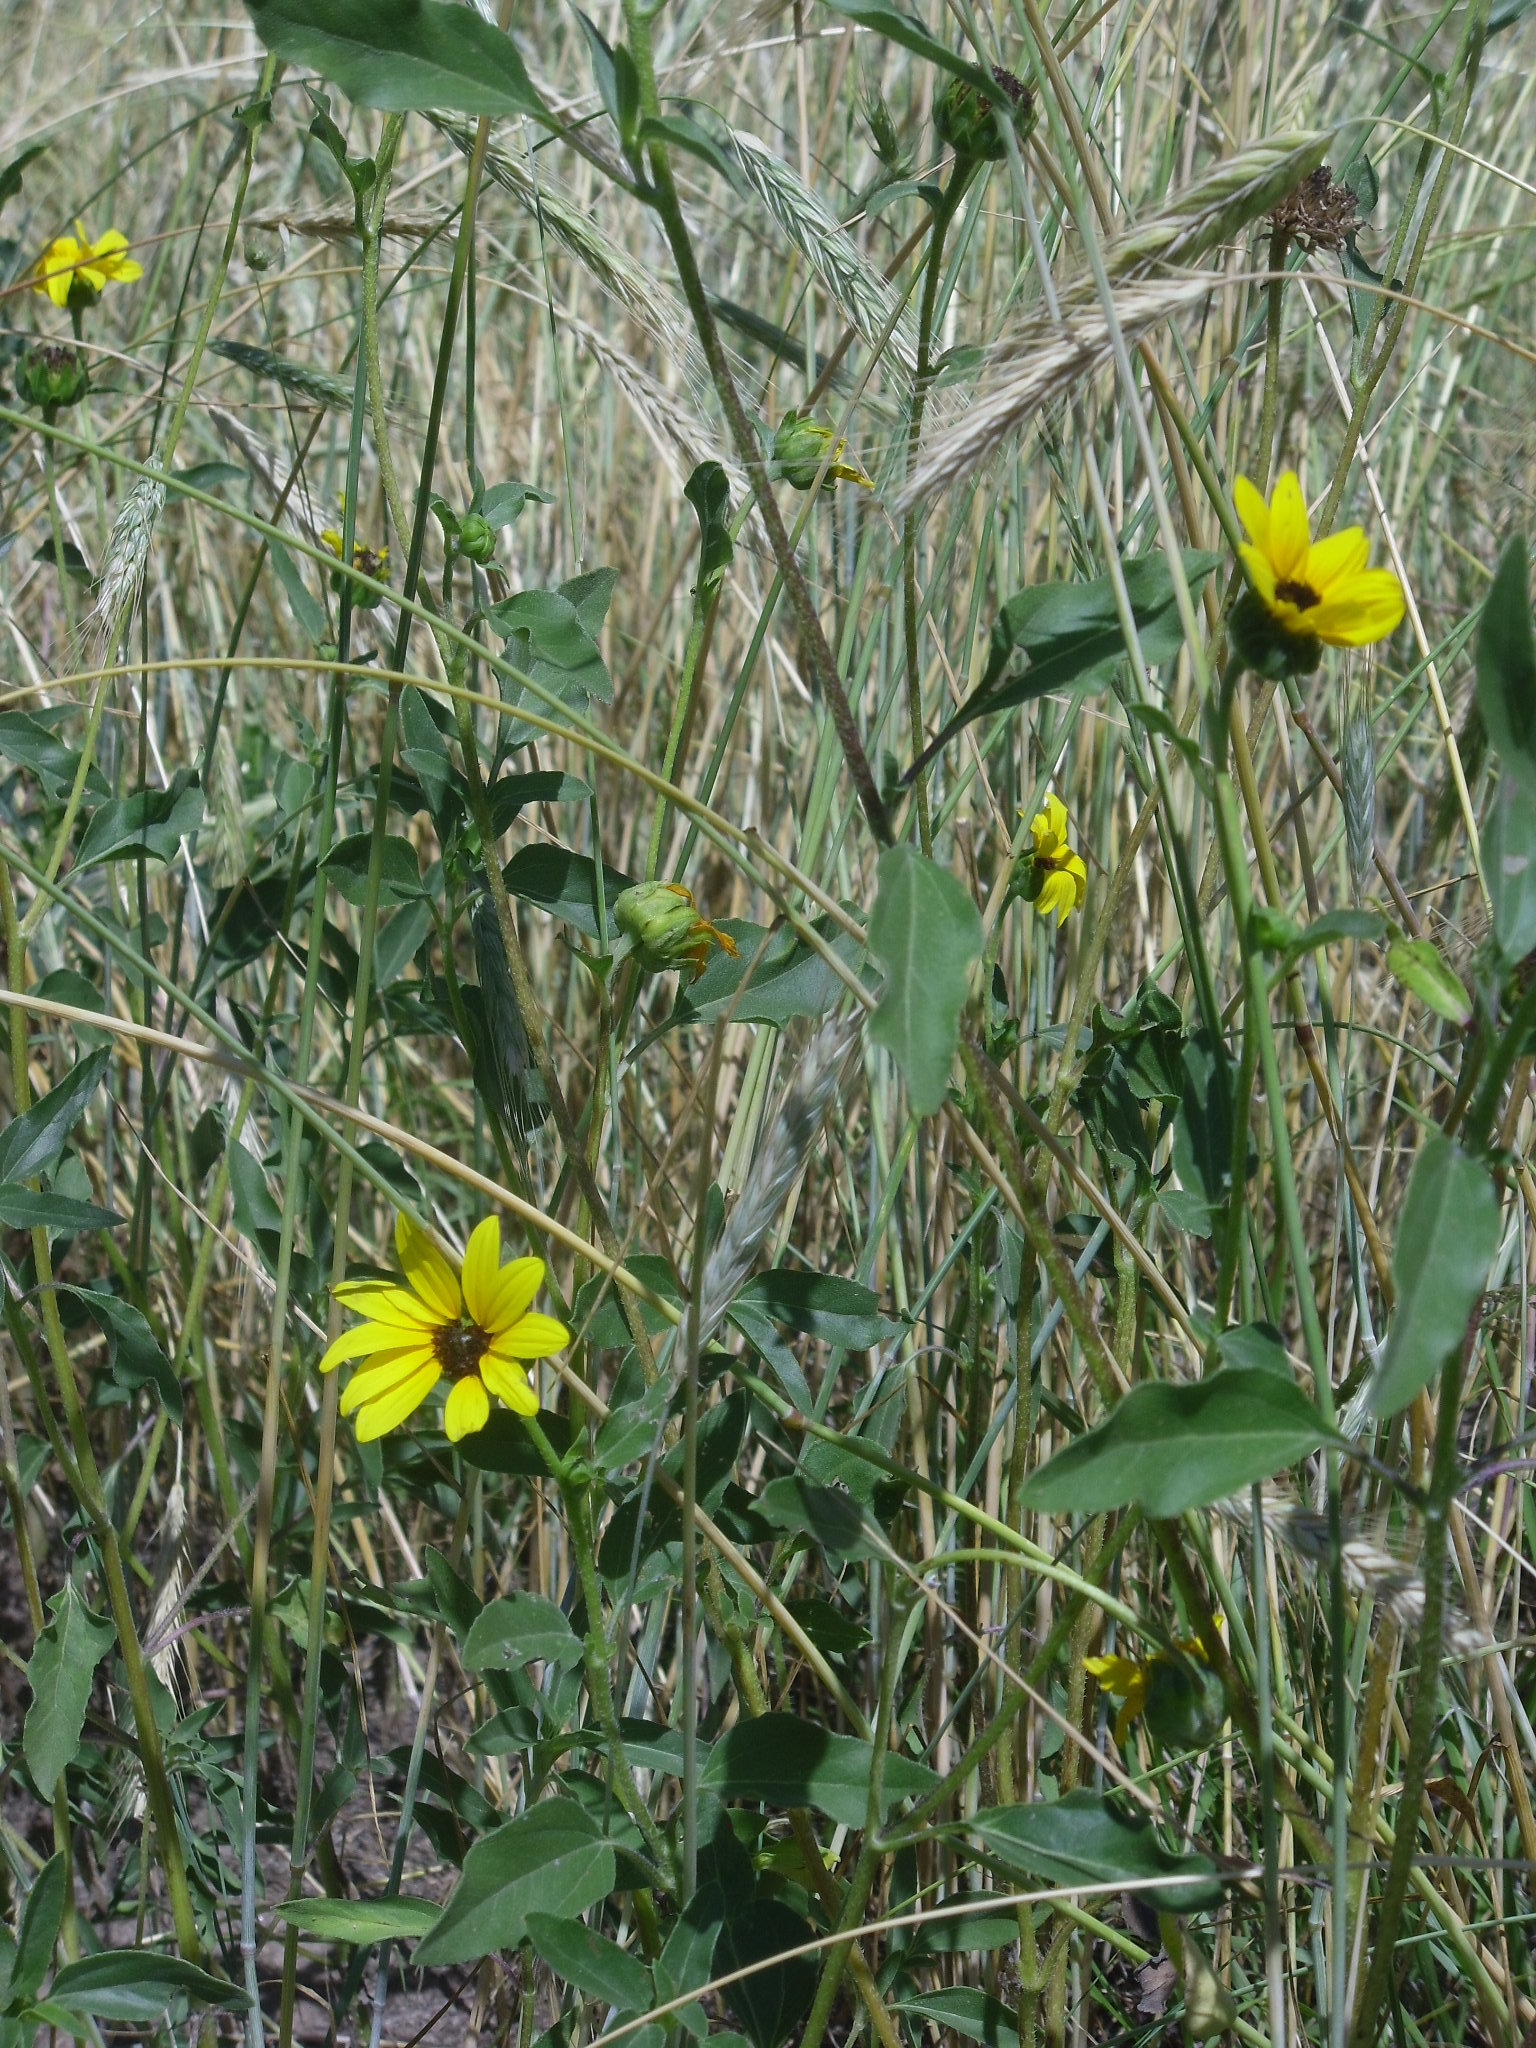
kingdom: Plantae
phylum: Tracheophyta
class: Magnoliopsida
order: Asterales
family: Asteraceae
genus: Helianthus
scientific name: Helianthus annuus
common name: Sunflower
